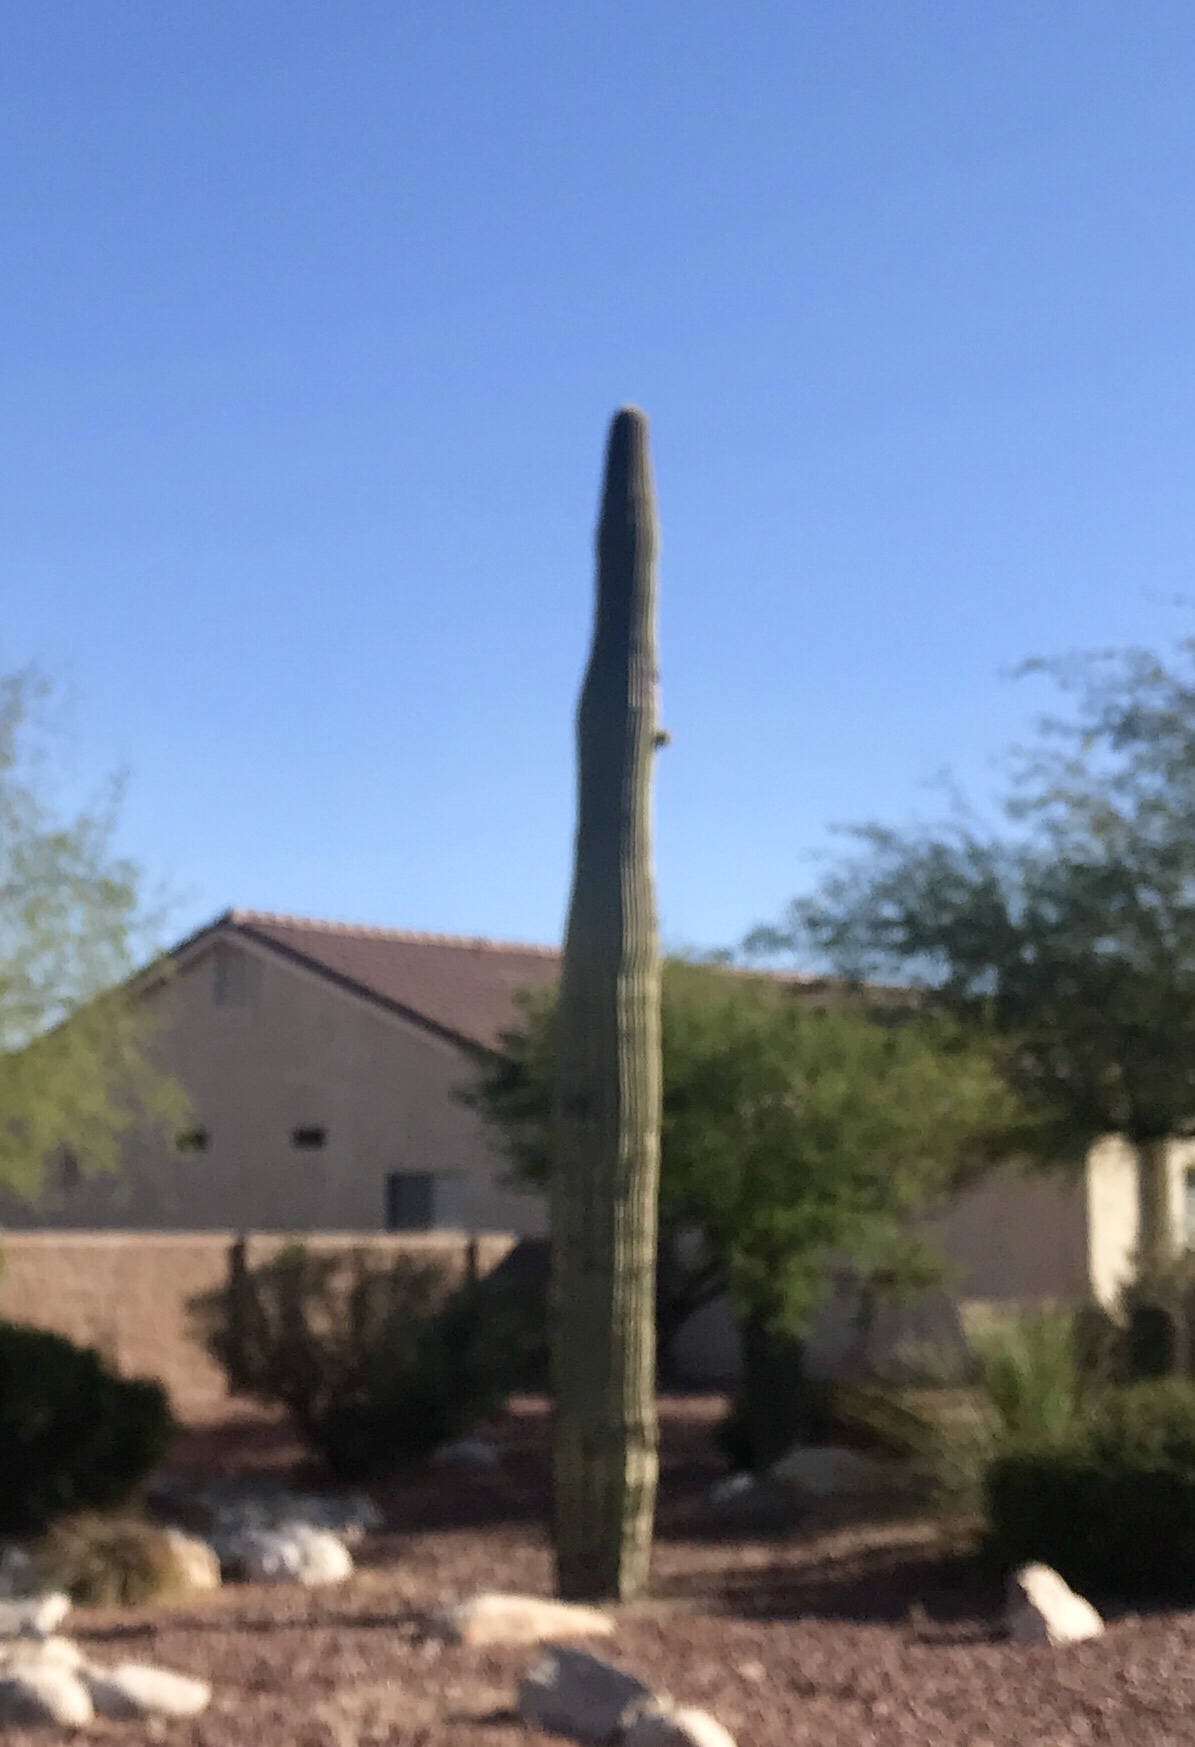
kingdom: Plantae
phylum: Tracheophyta
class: Magnoliopsida
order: Caryophyllales
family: Cactaceae
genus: Carnegiea
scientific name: Carnegiea gigantea
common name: Saguaro
